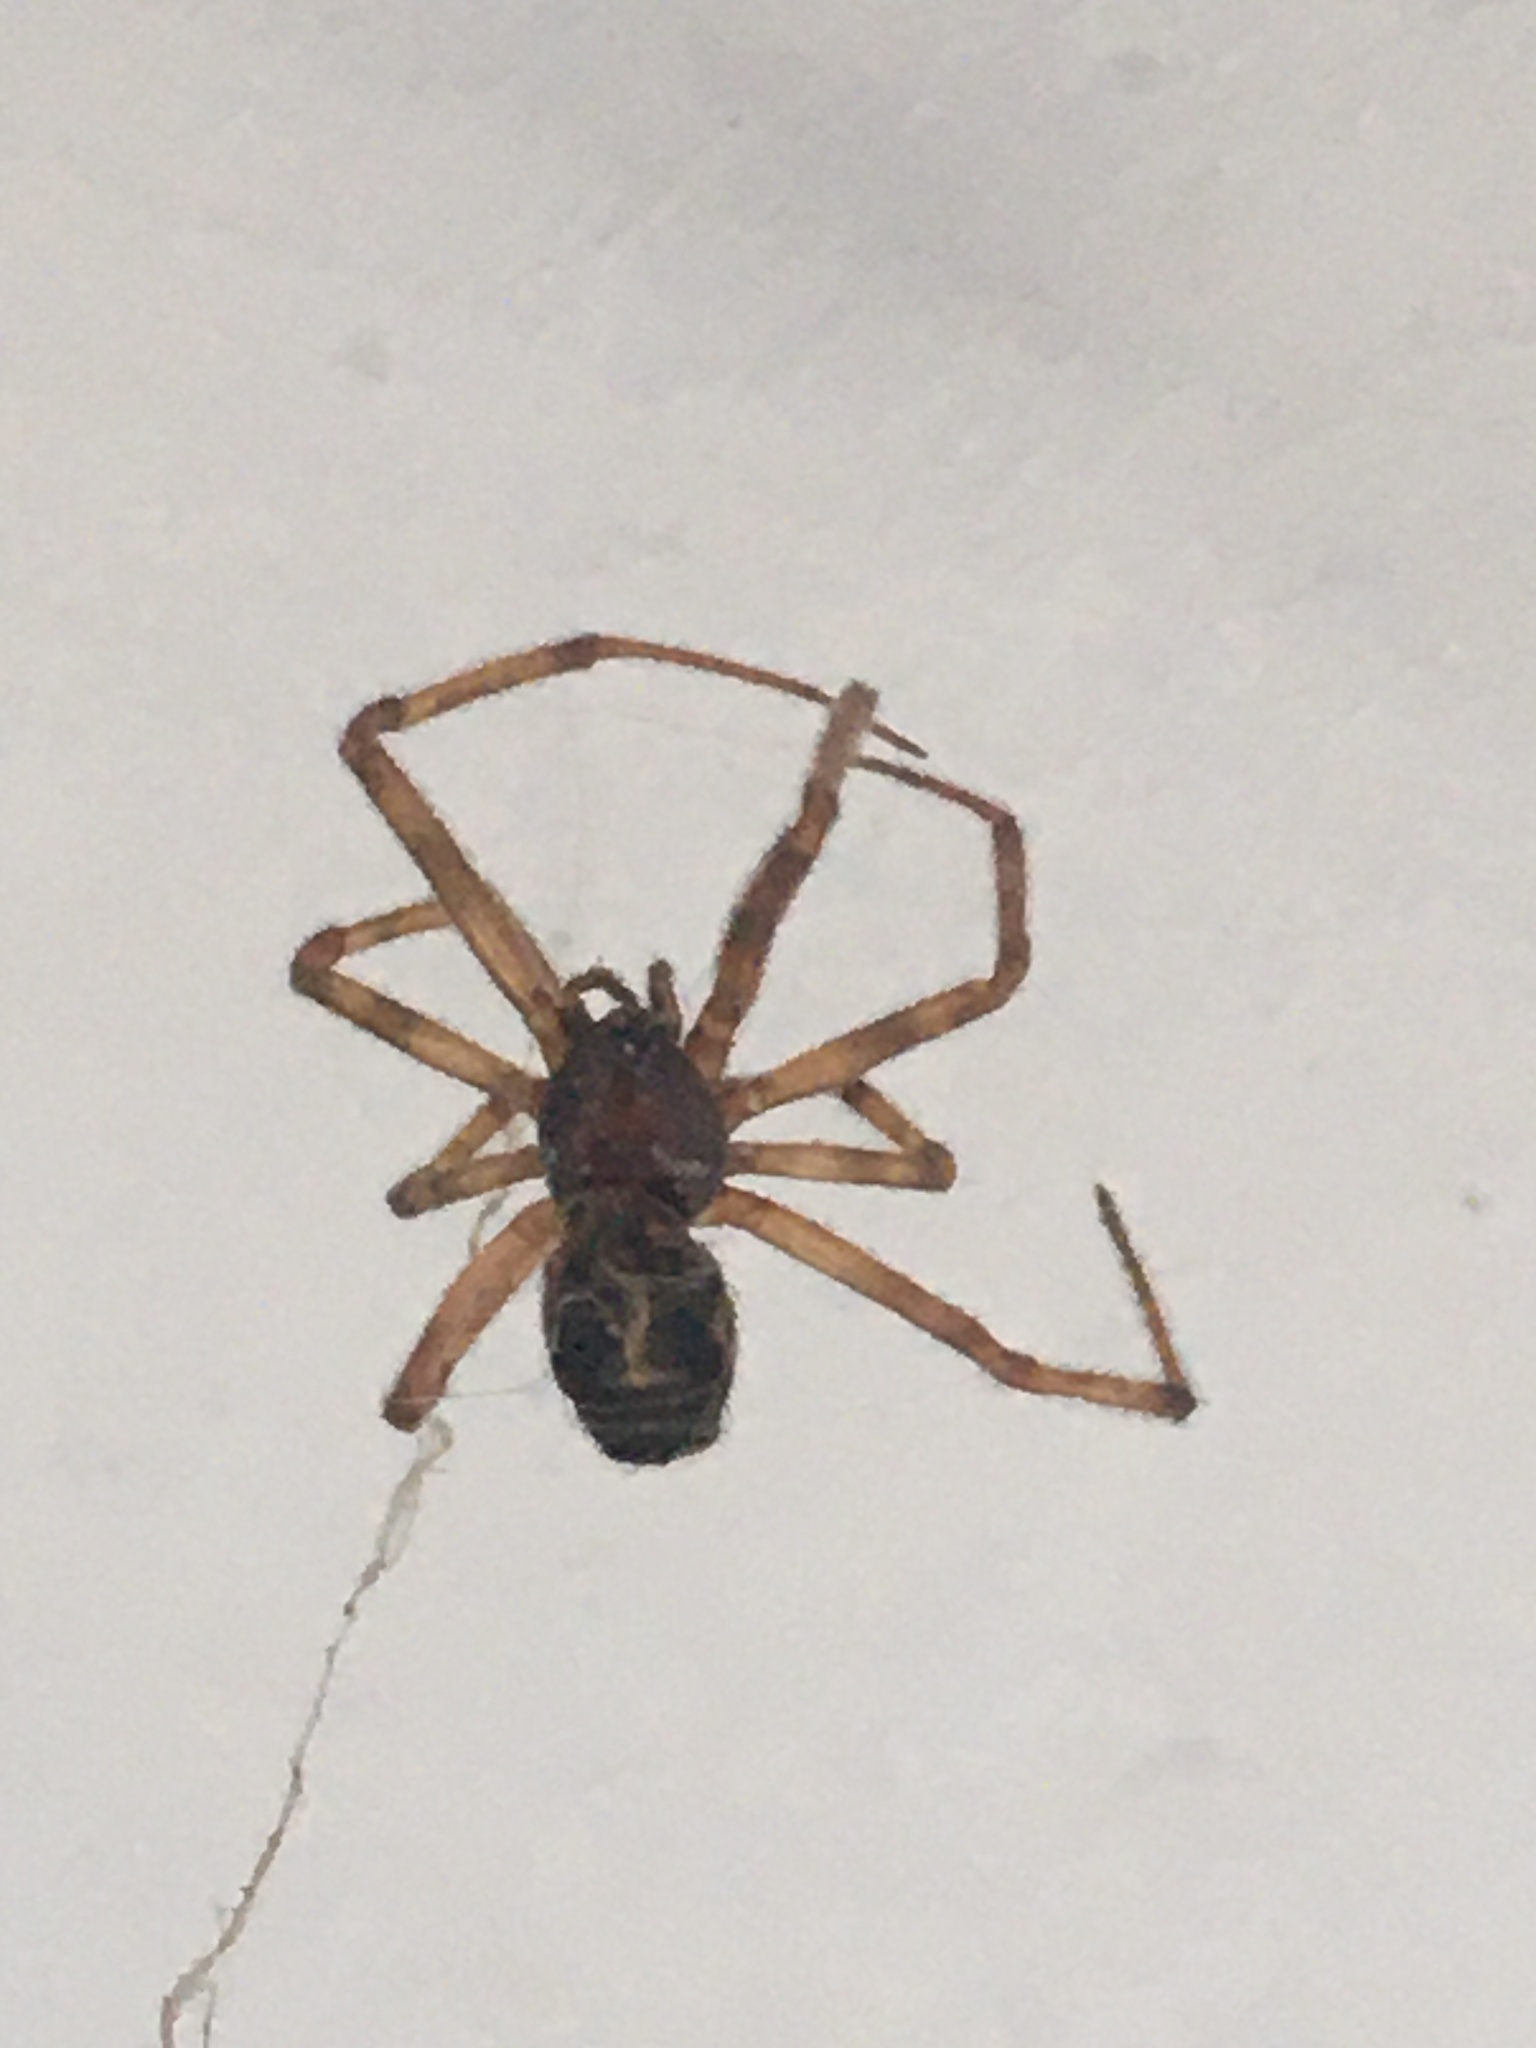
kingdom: Animalia
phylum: Arthropoda
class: Arachnida
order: Araneae
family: Theridiidae
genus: Steatoda
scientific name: Steatoda paykulliana
